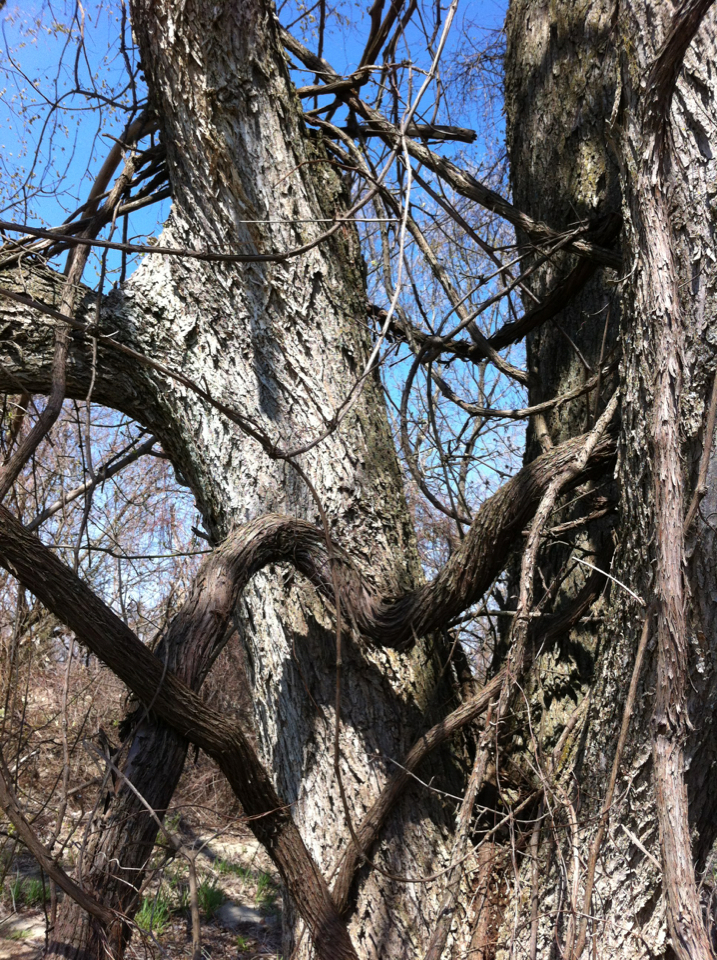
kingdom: Plantae
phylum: Tracheophyta
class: Magnoliopsida
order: Sapindales
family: Sapindaceae
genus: Acer
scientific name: Acer saccharinum
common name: Silver maple
